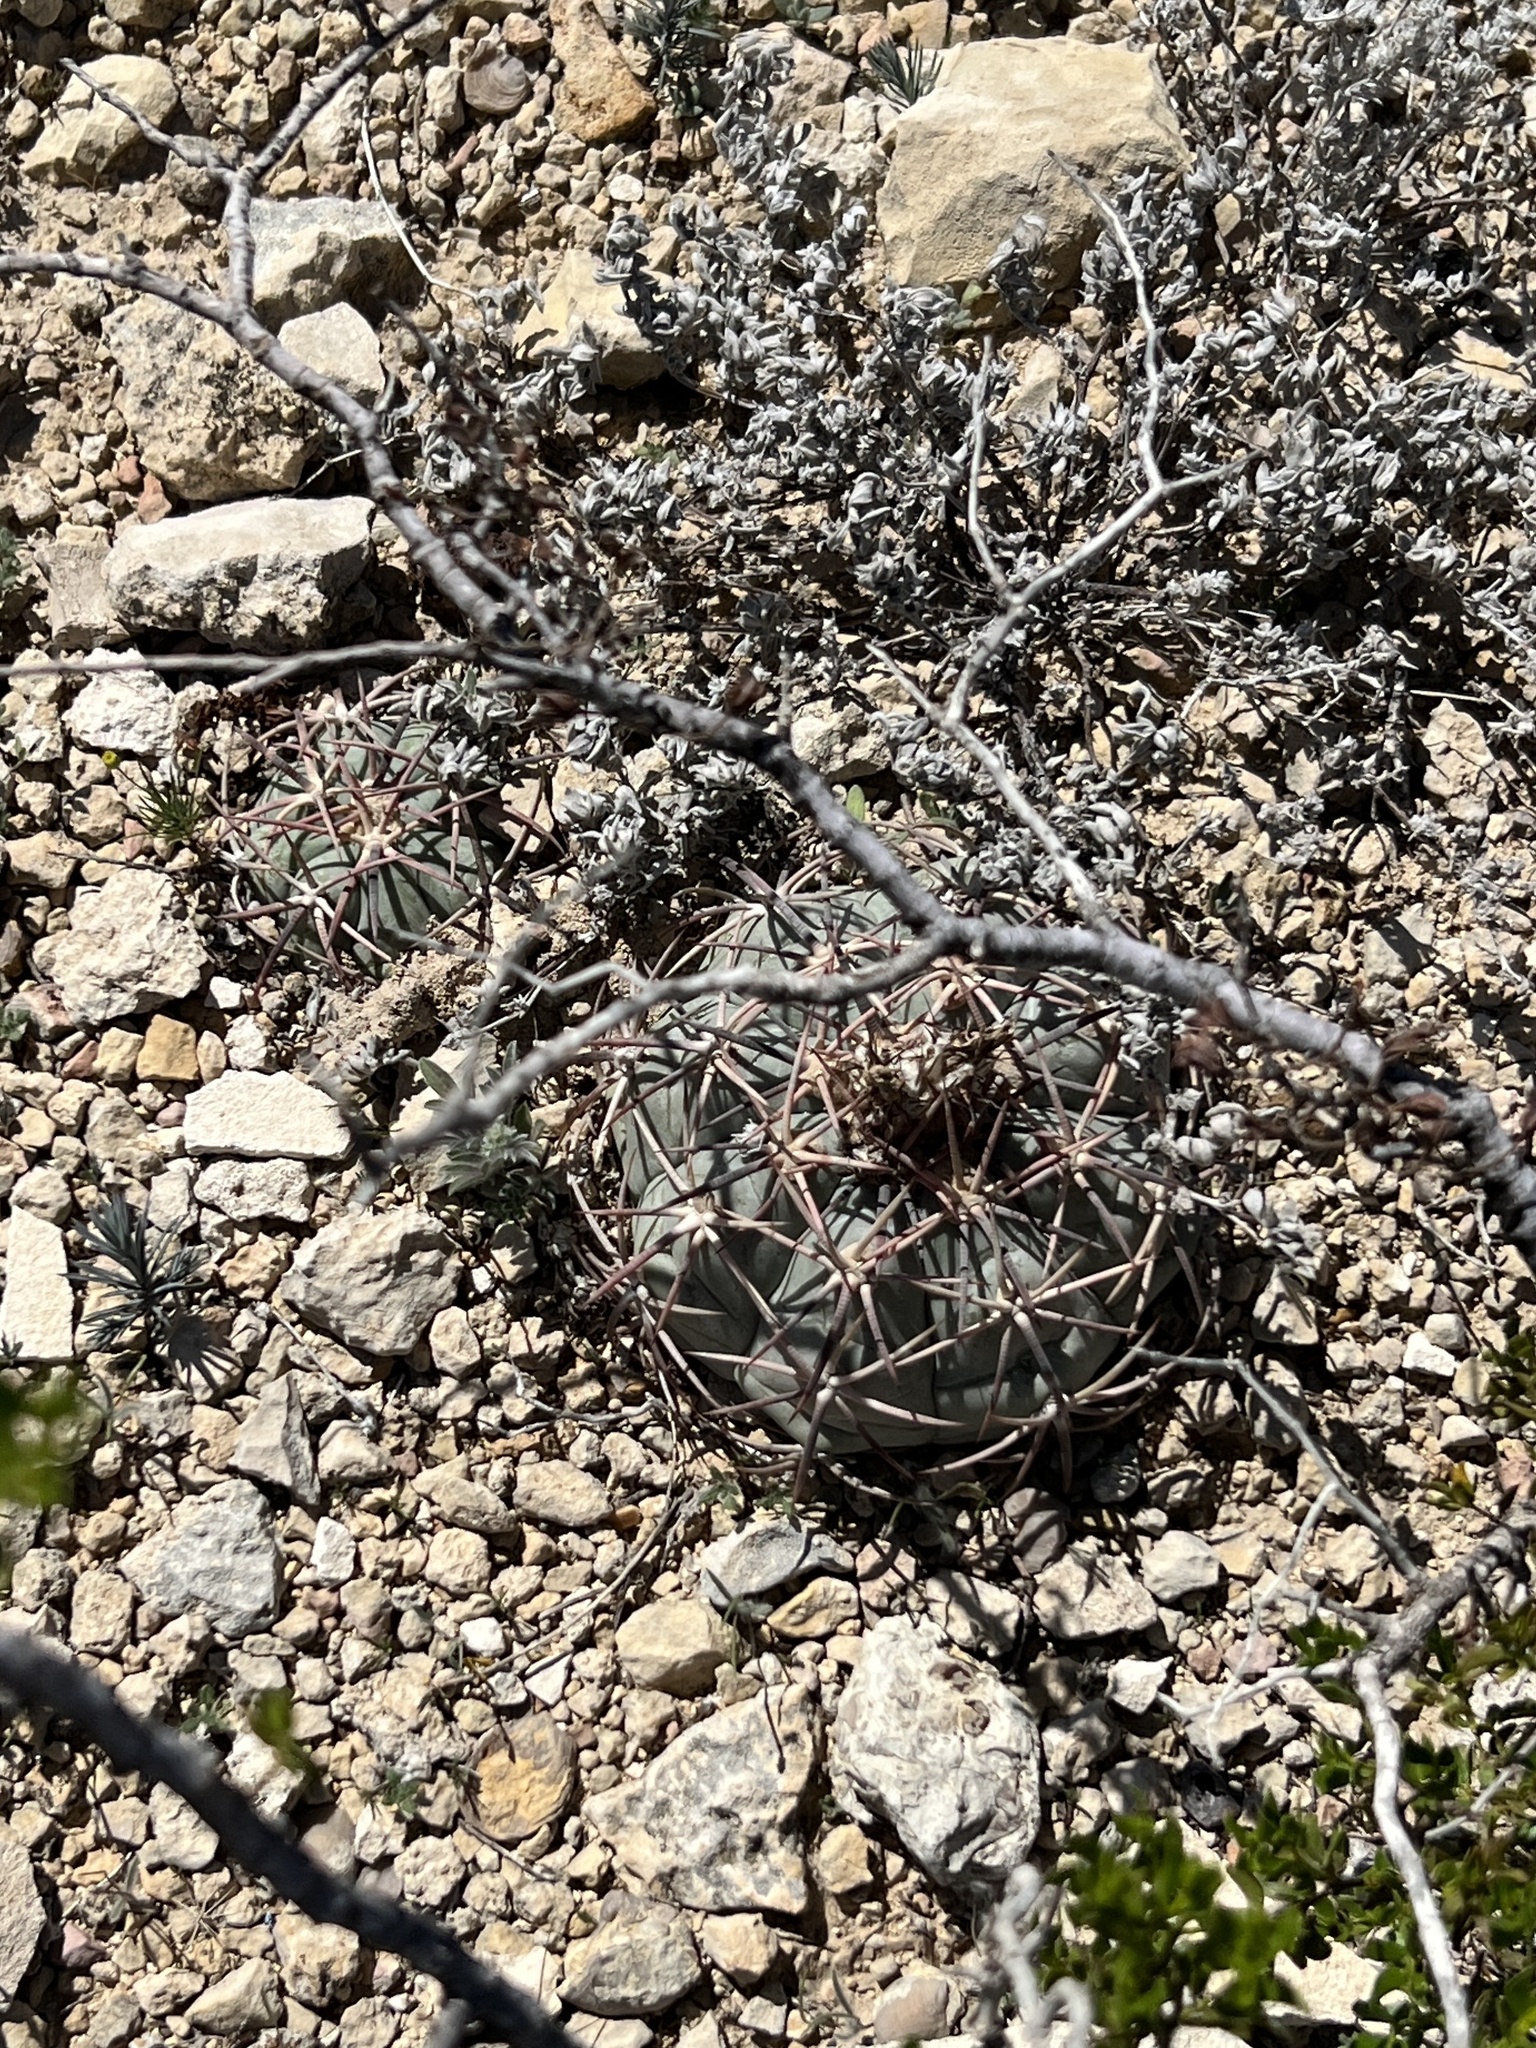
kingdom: Plantae
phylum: Tracheophyta
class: Magnoliopsida
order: Caryophyllales
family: Cactaceae
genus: Echinocactus
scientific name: Echinocactus horizonthalonius
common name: Devilshead
